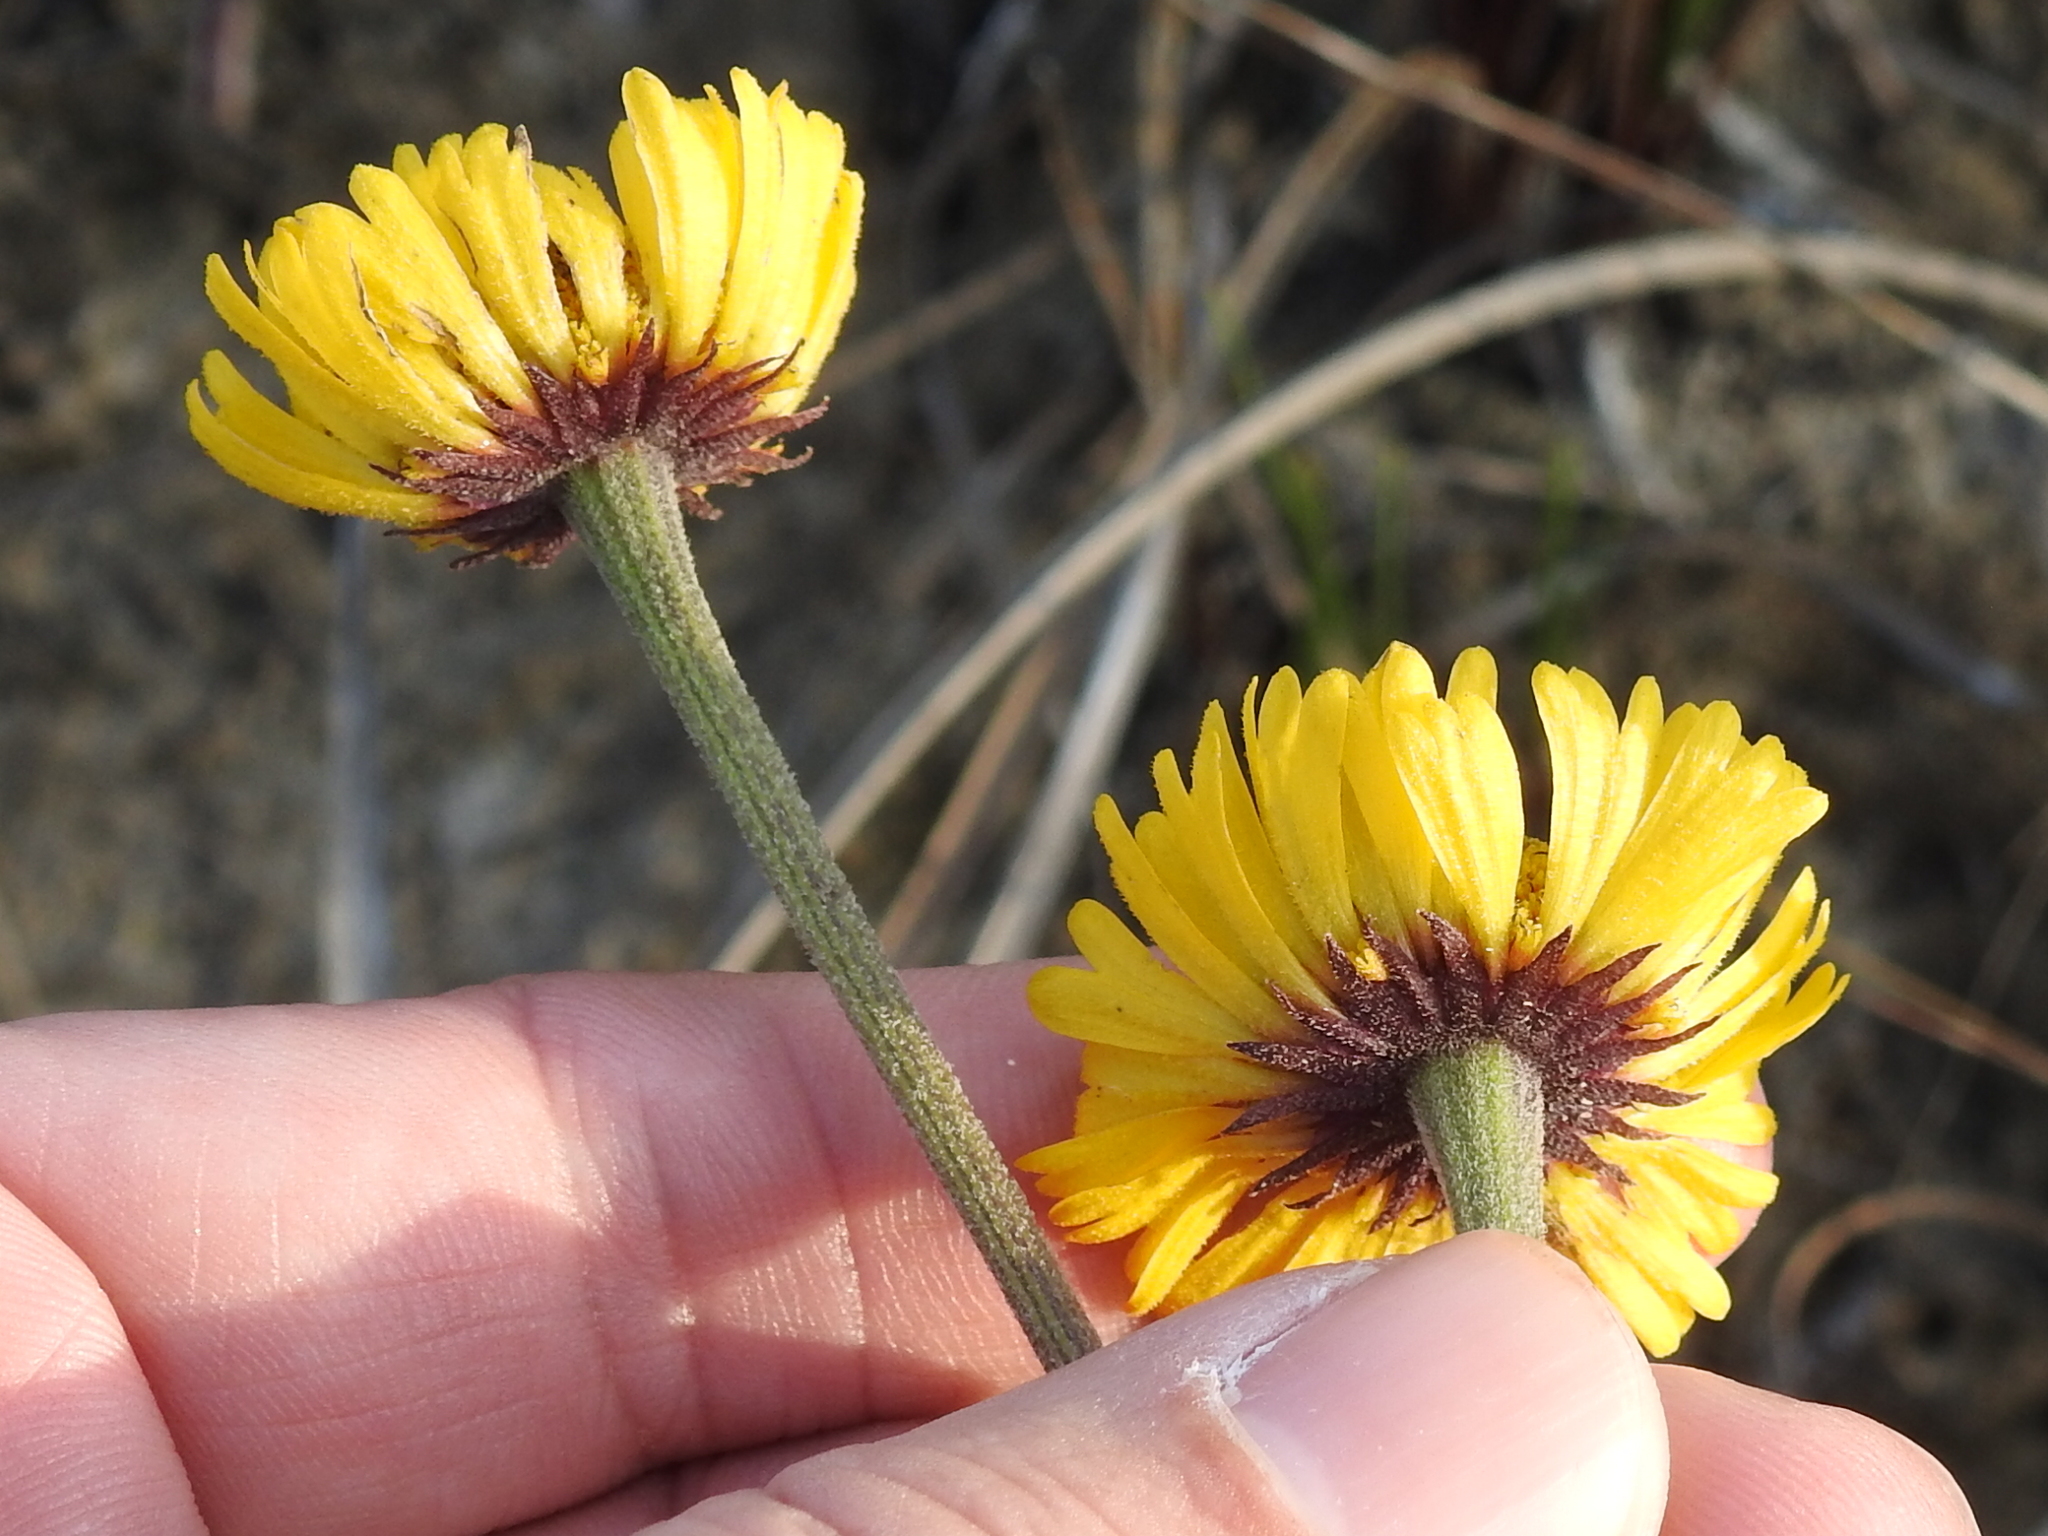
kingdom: Plantae
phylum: Tracheophyta
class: Magnoliopsida
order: Asterales
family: Asteraceae
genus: Helenium
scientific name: Helenium pinnatifidum
